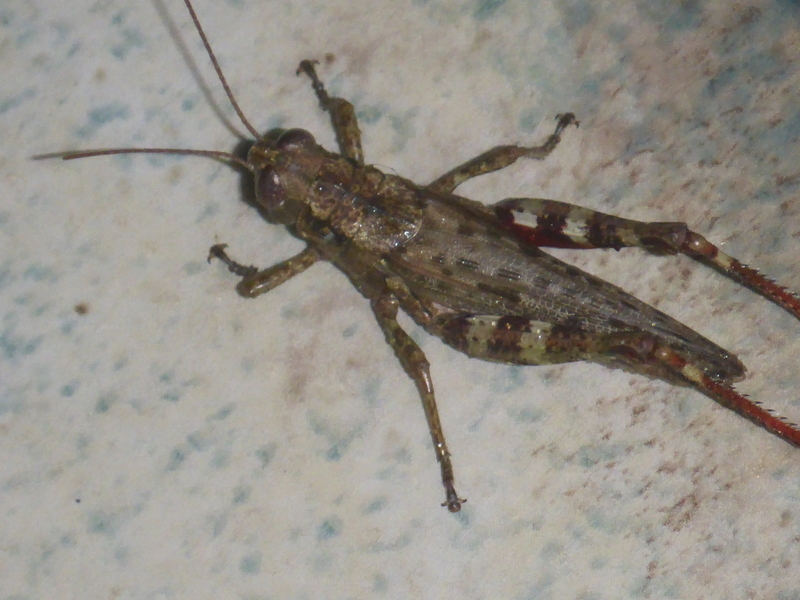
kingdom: Animalia
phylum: Arthropoda
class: Insecta
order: Orthoptera
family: Acrididae
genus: Melanoplus
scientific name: Melanoplus punctulatus
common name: Pine-tree spur-throat grasshopper
